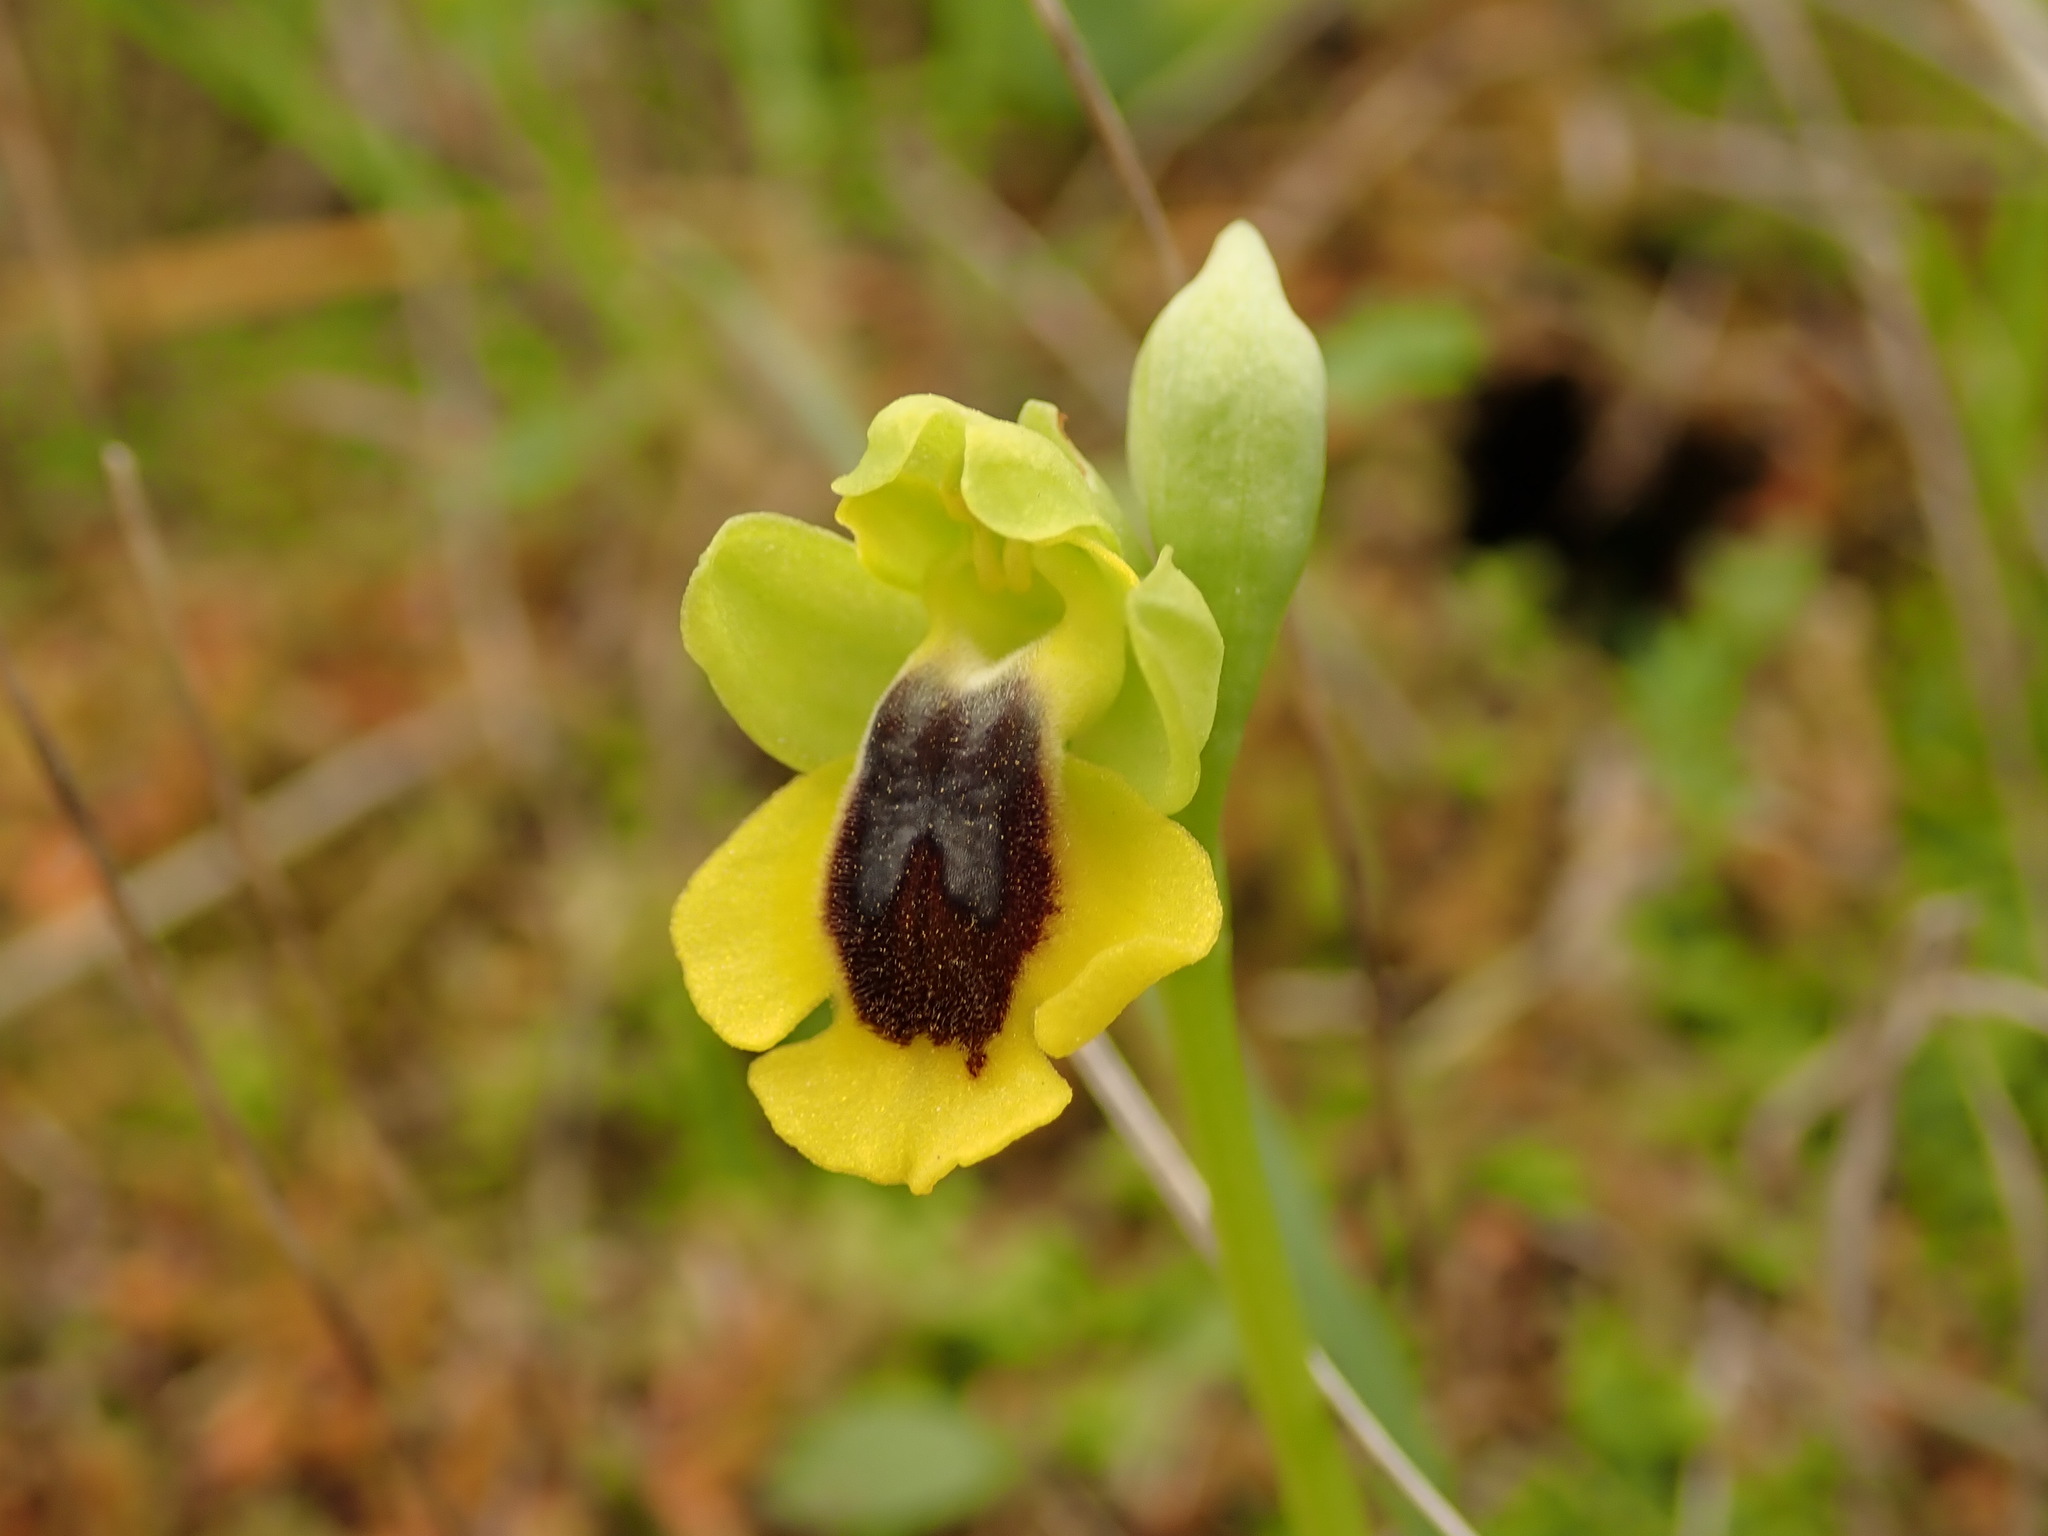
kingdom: Plantae
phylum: Tracheophyta
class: Liliopsida
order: Asparagales
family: Orchidaceae
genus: Ophrys
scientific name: Ophrys lutea
